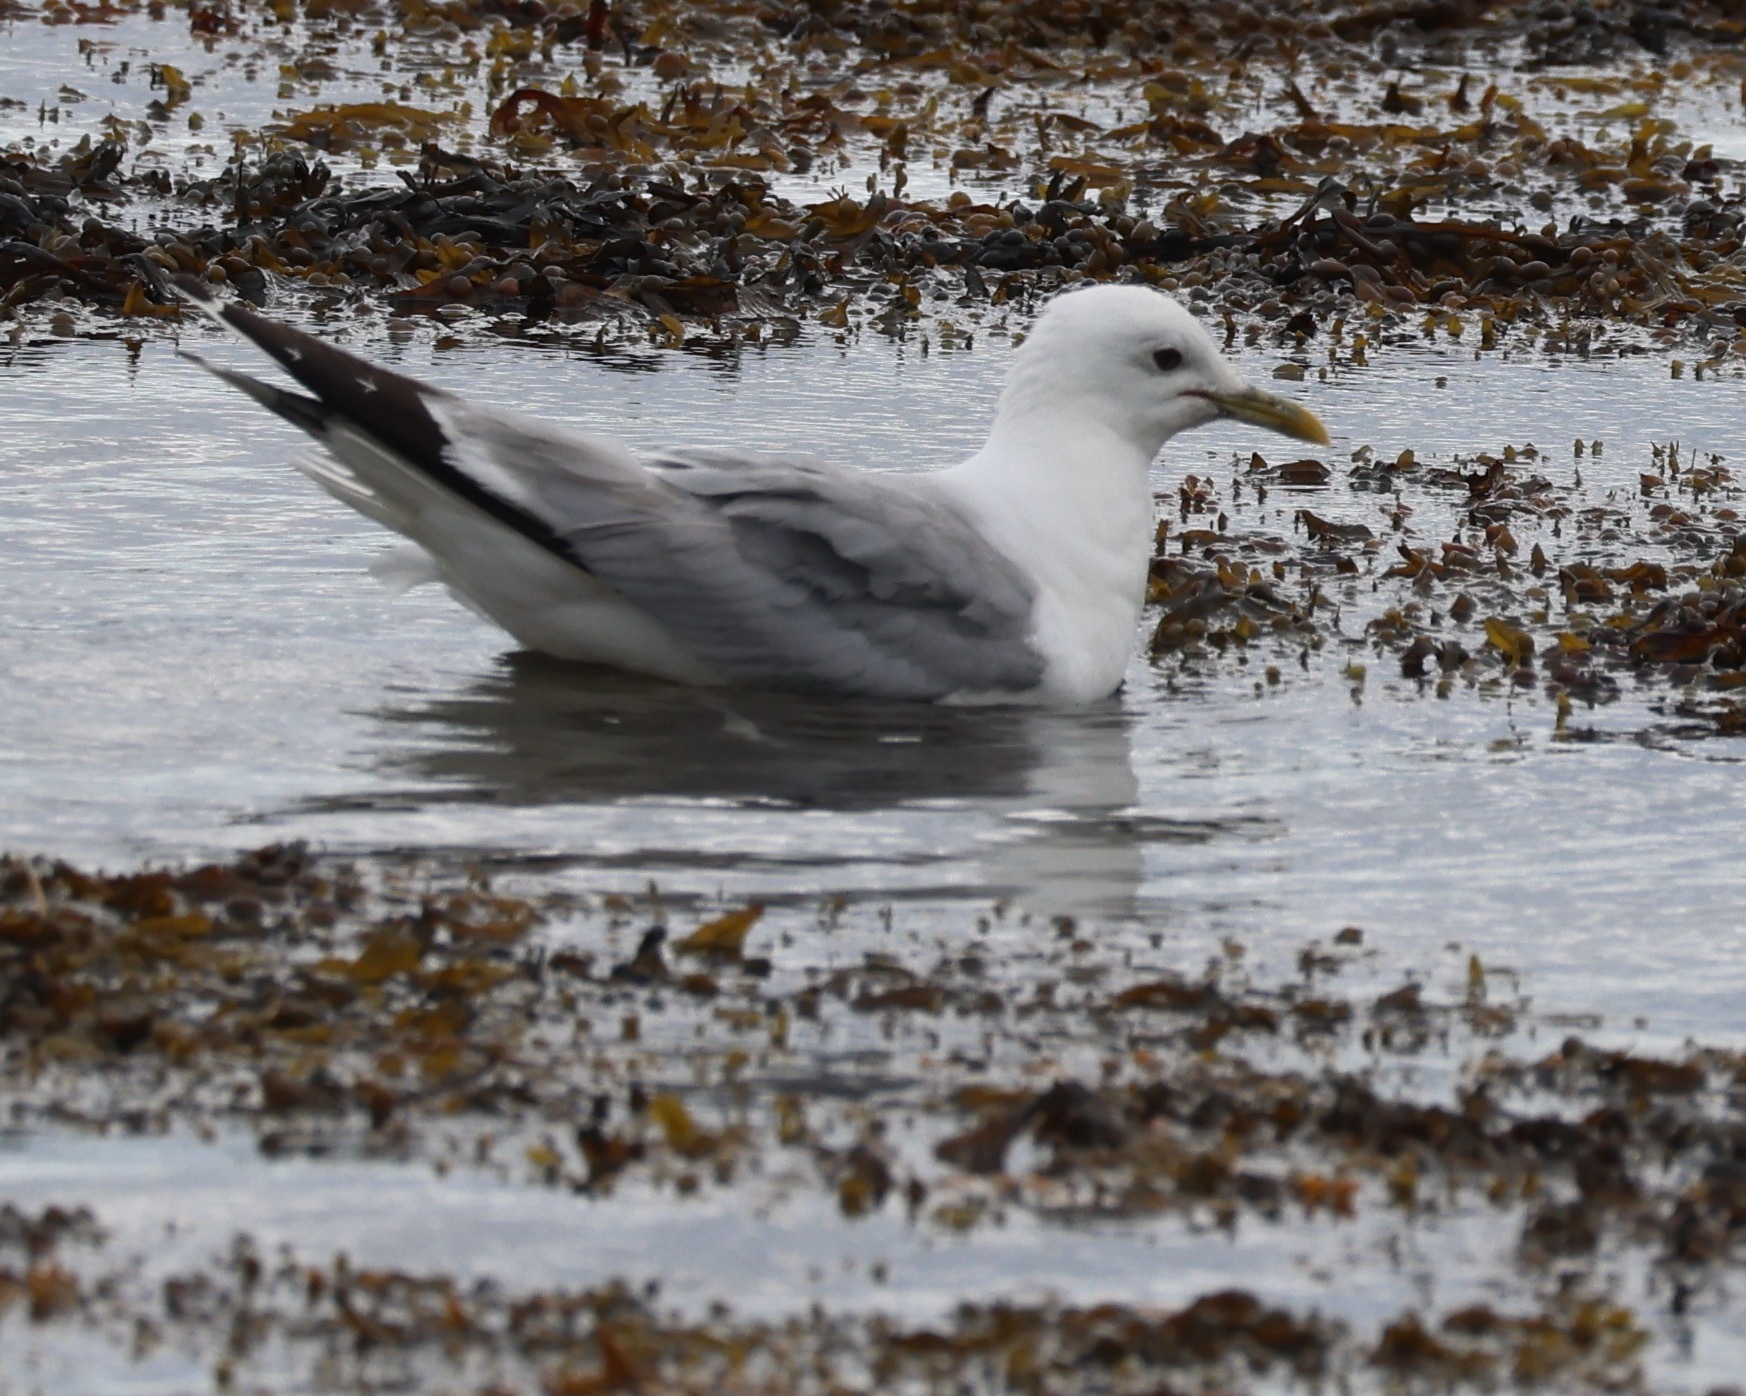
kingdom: Animalia
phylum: Chordata
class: Aves
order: Charadriiformes
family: Laridae
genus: Larus
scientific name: Larus canus
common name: Mew gull
